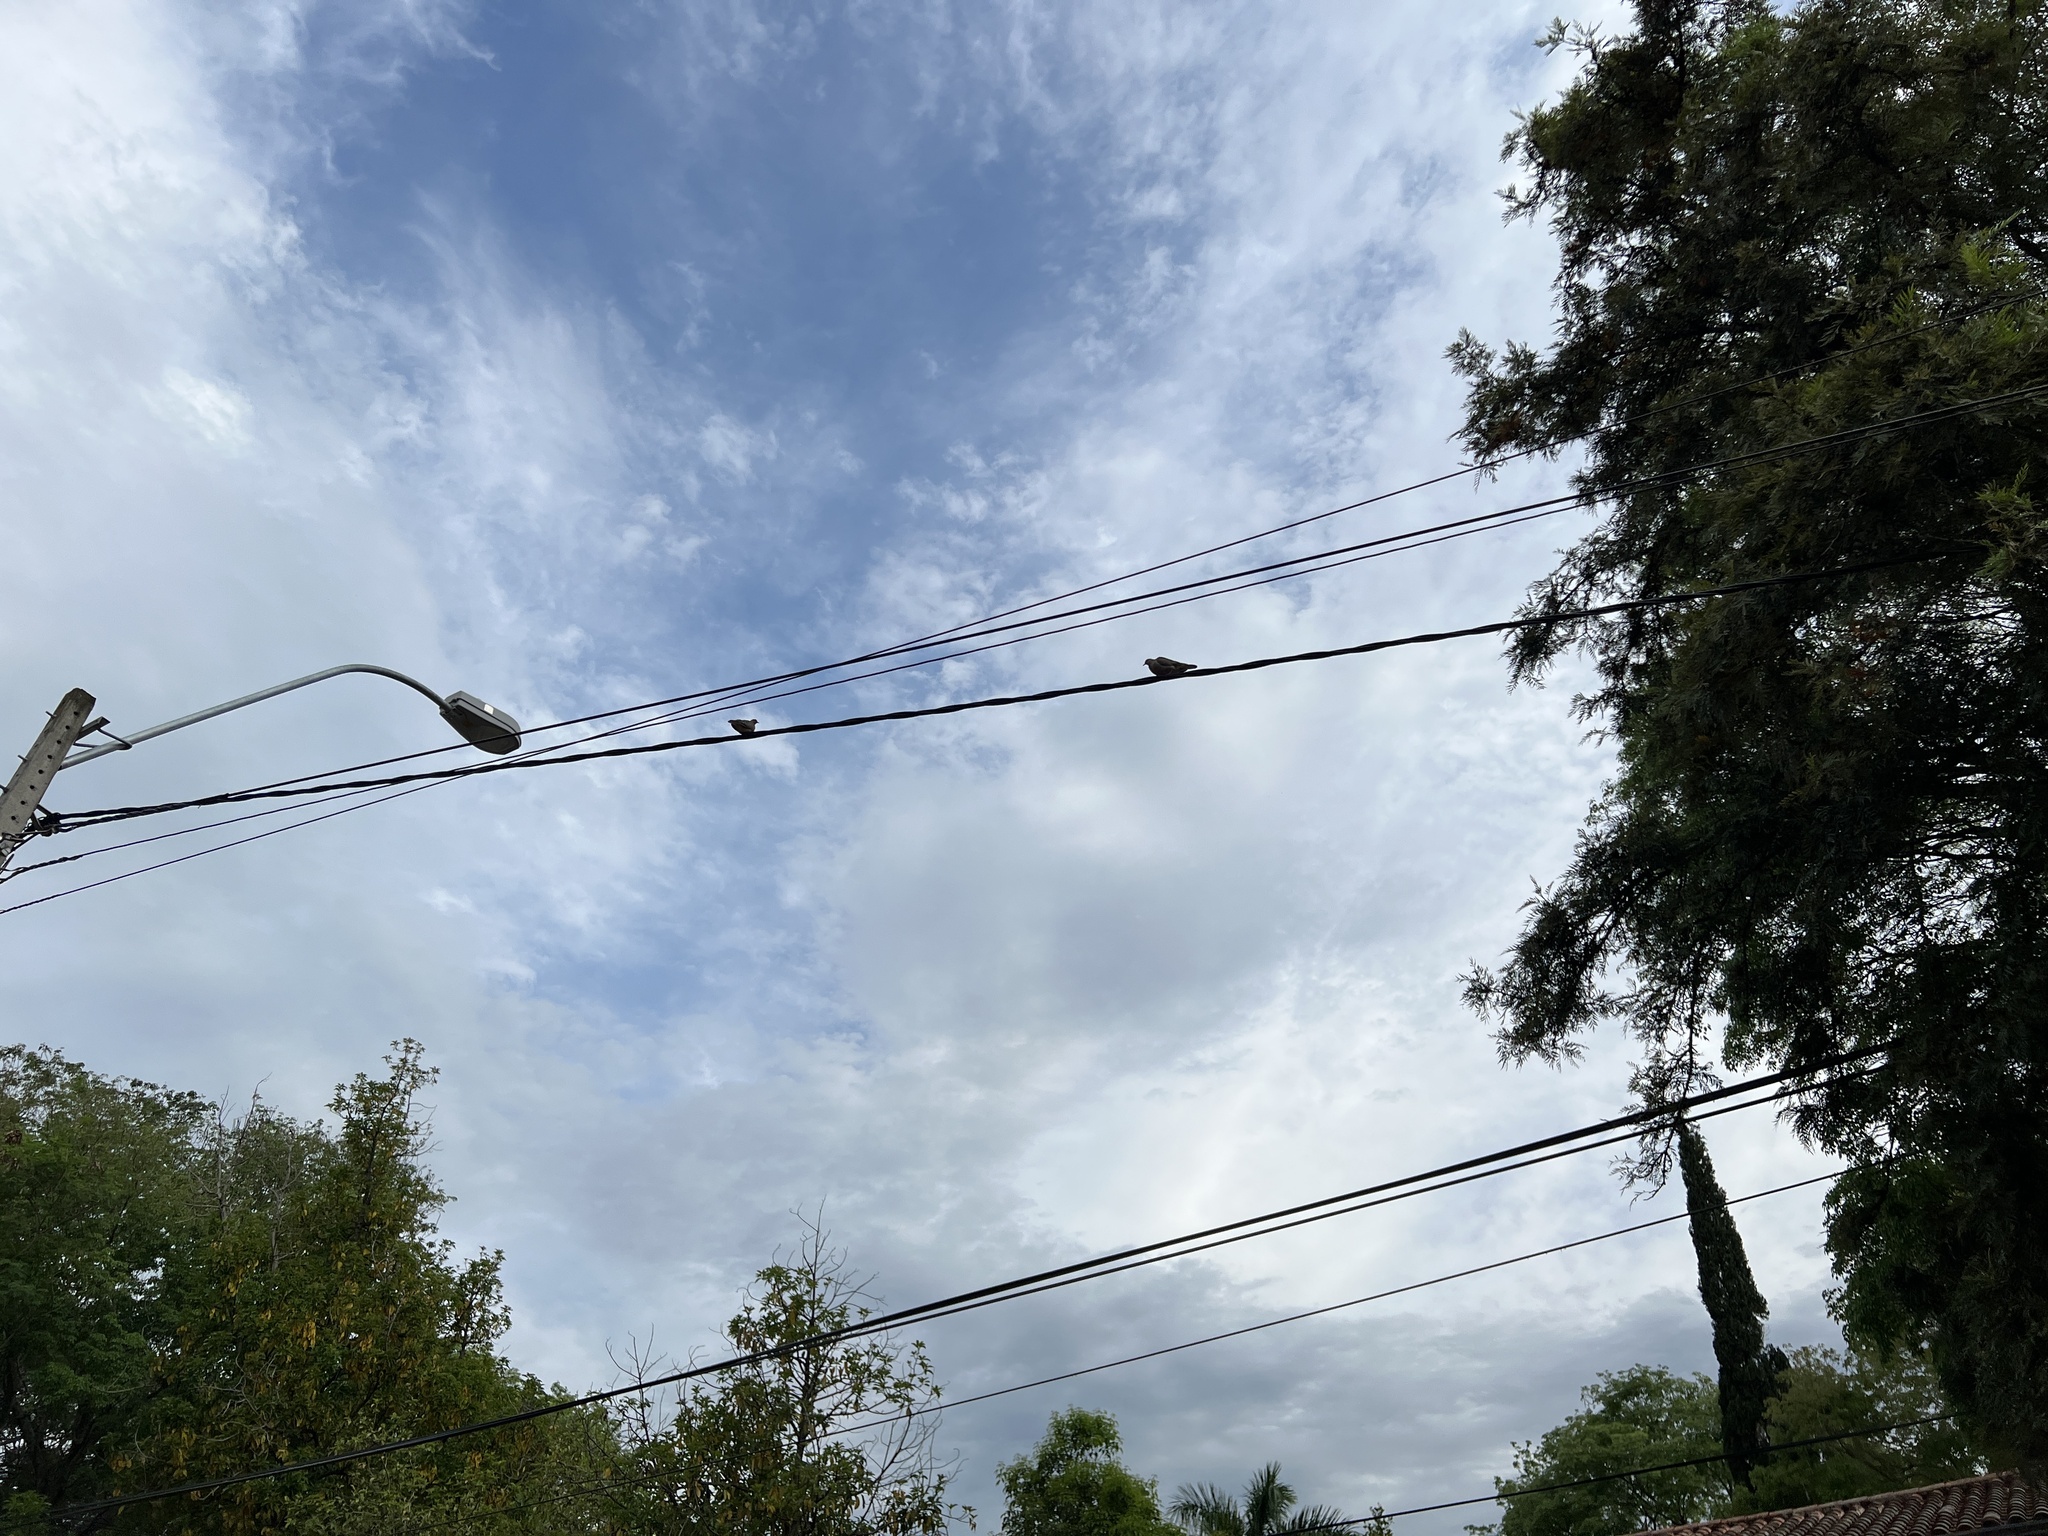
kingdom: Animalia
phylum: Chordata
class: Aves
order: Columbiformes
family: Columbidae
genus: Zenaida
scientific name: Zenaida auriculata
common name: Eared dove
